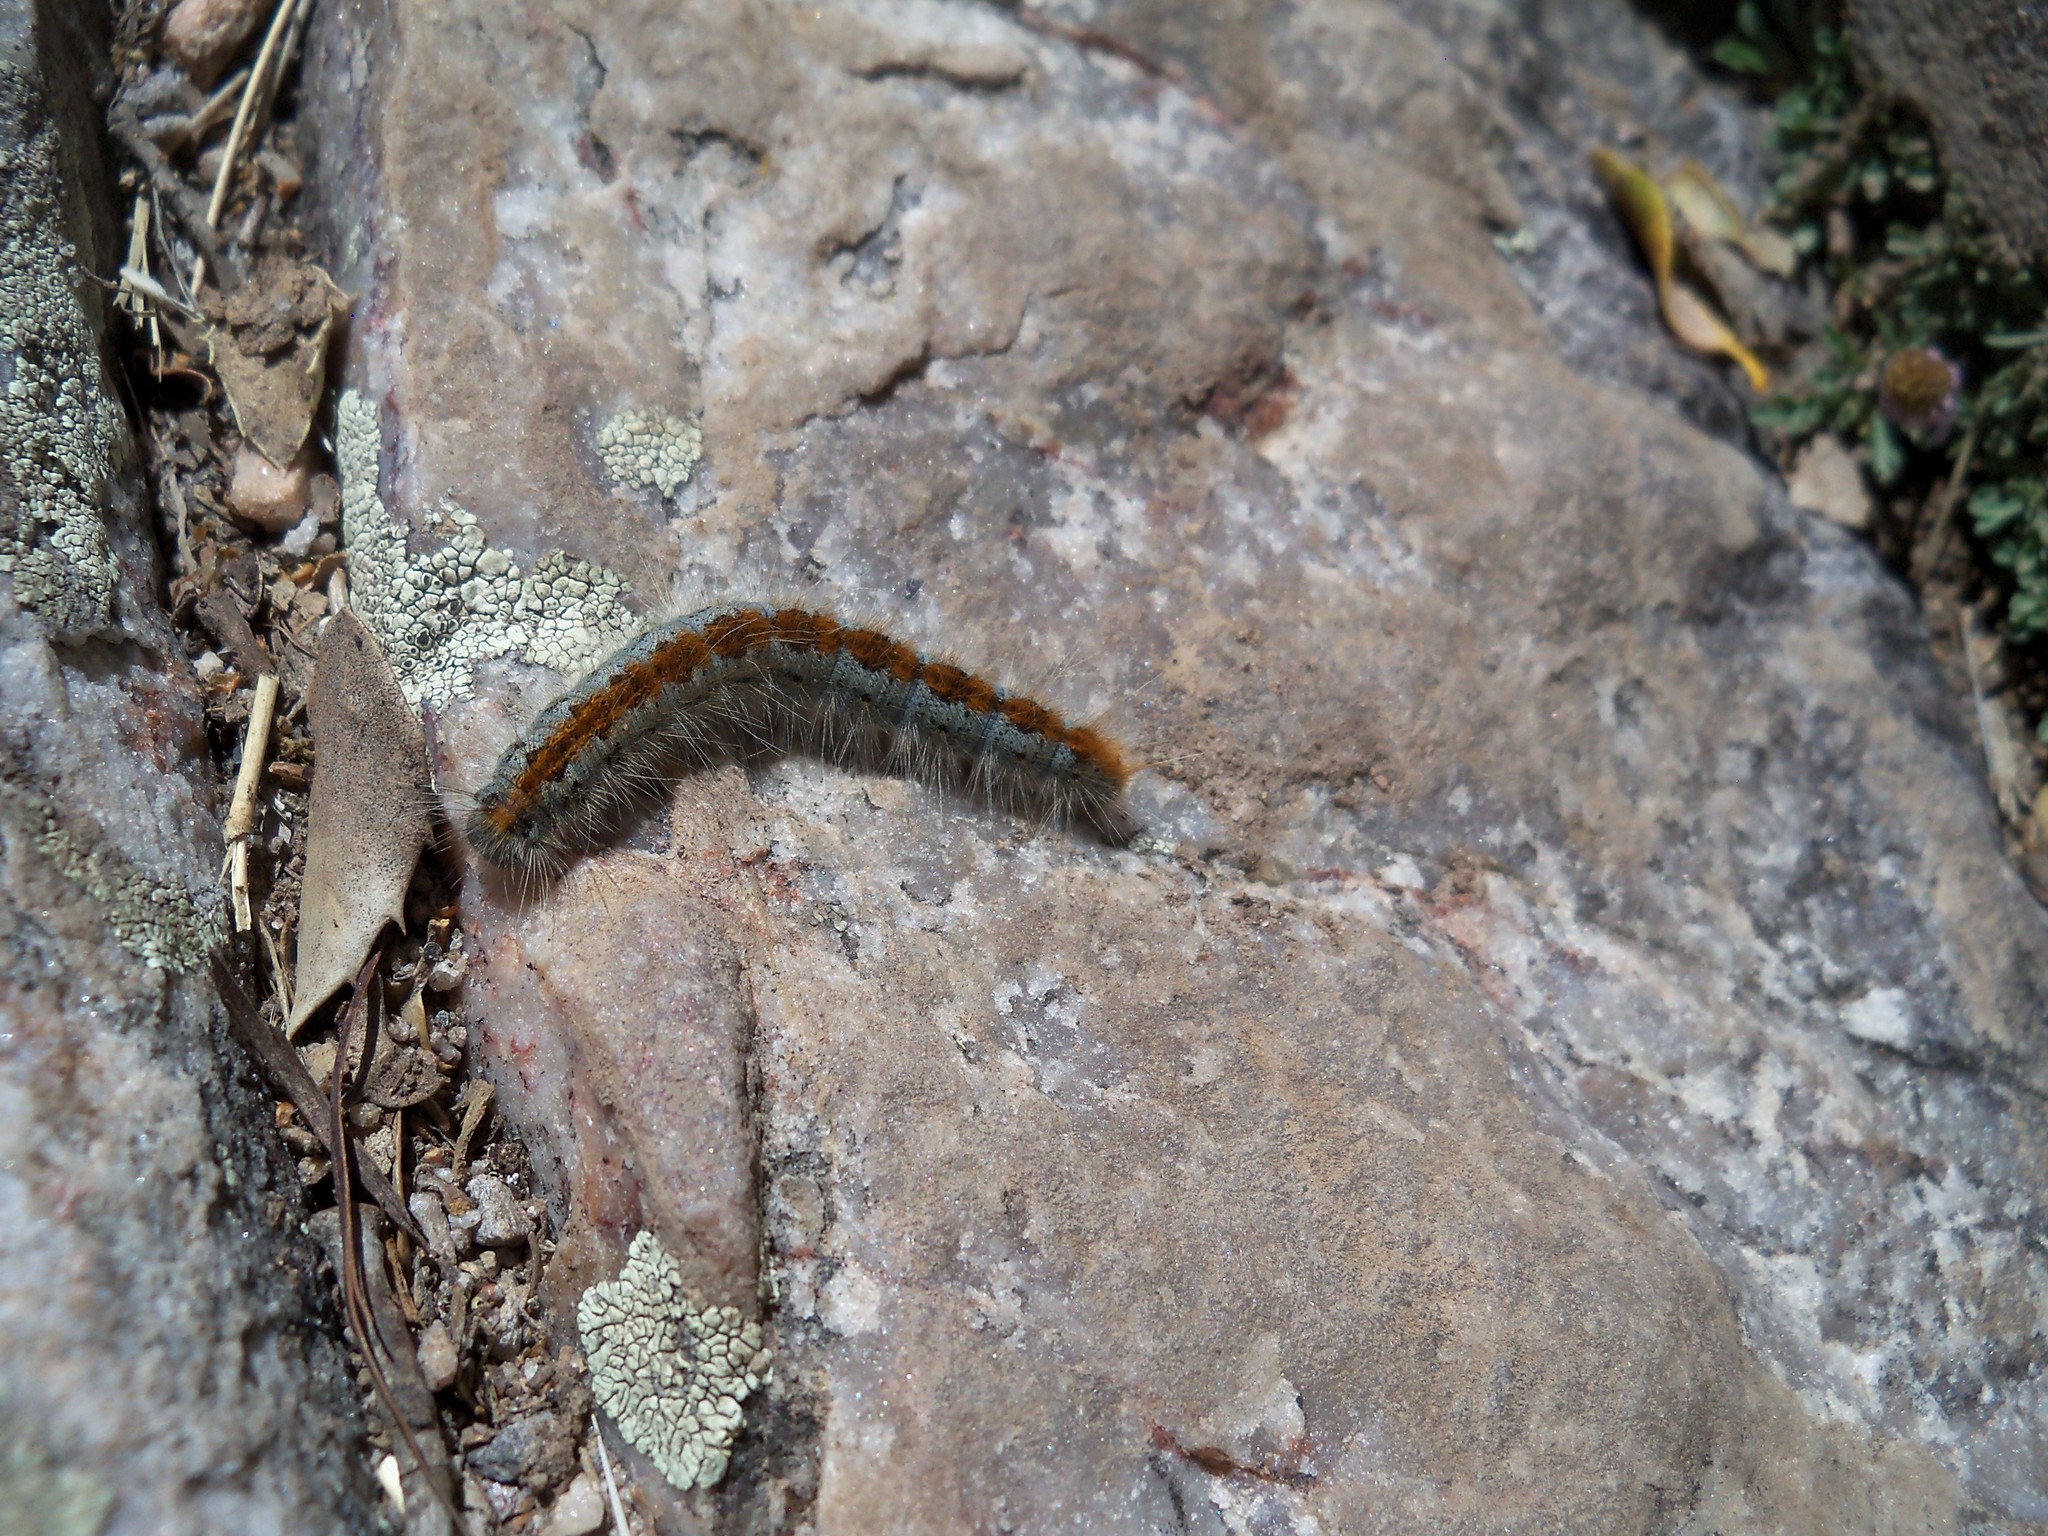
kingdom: Animalia
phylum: Arthropoda
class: Insecta
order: Lepidoptera
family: Lasiocampidae
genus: Malacosoma
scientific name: Malacosoma incurva
